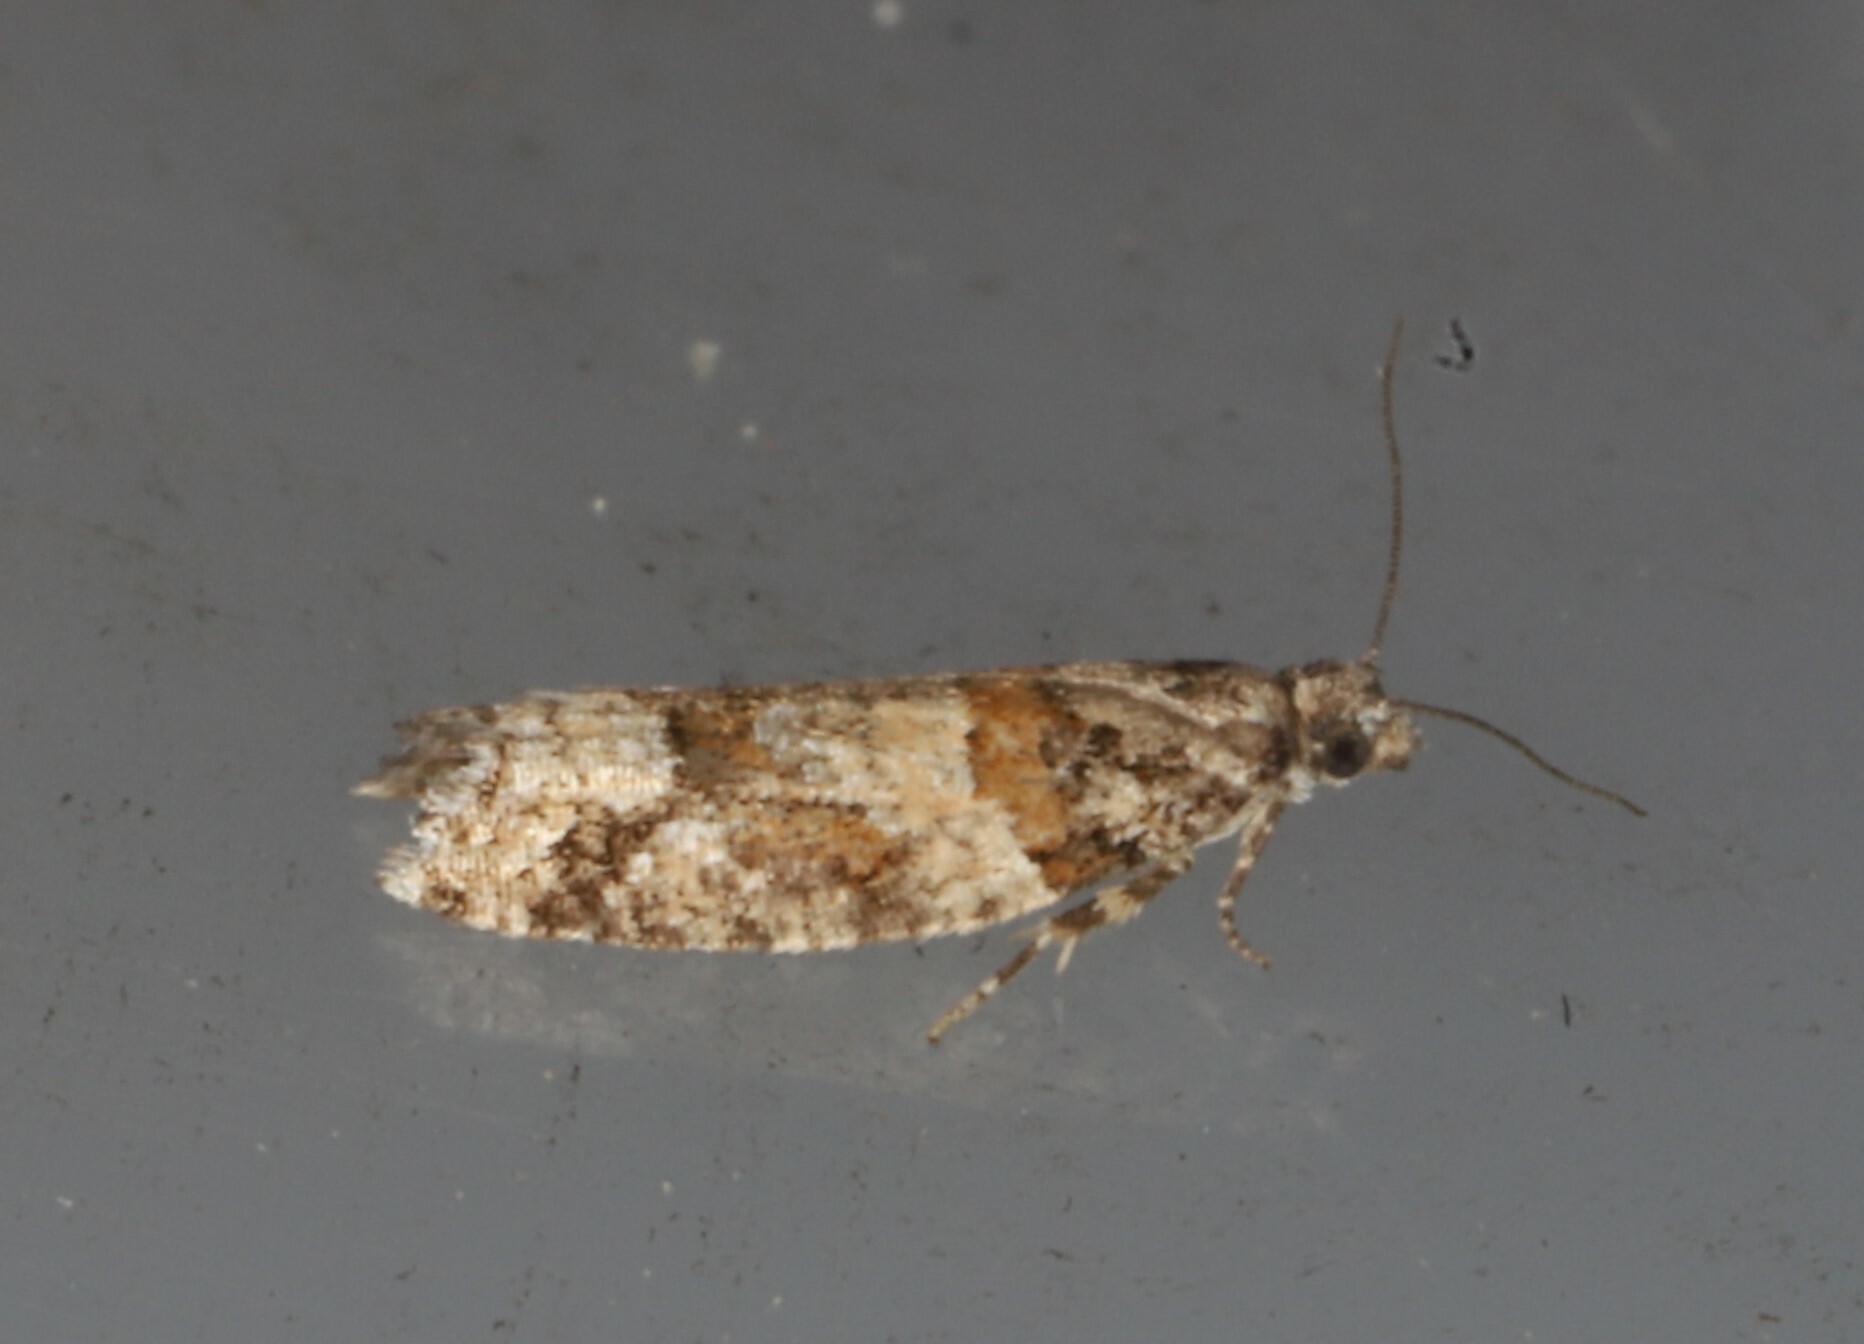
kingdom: Animalia
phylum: Arthropoda
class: Insecta
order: Lepidoptera
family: Tortricidae
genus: Epinotia
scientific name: Epinotia radicana
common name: Red-striped needleworm moth
